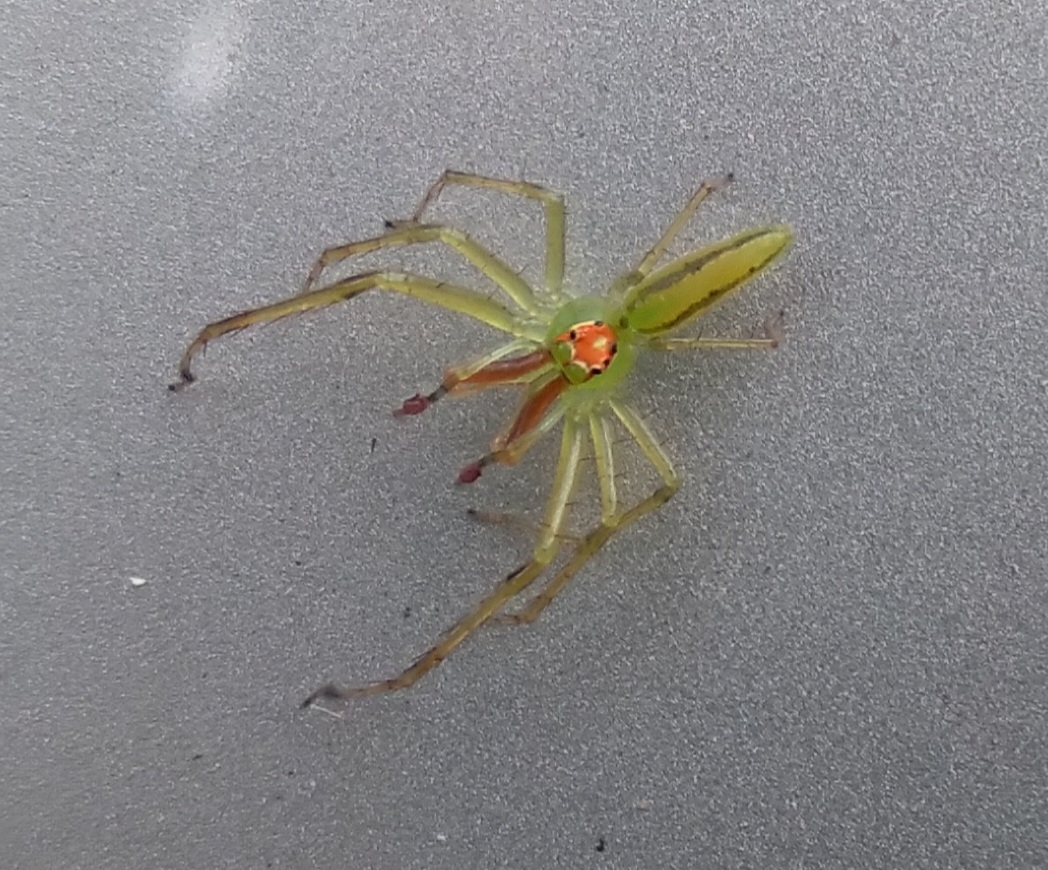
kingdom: Animalia
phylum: Arthropoda
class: Arachnida
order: Araneae
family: Salticidae
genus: Lyssomanes
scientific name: Lyssomanes viridis
